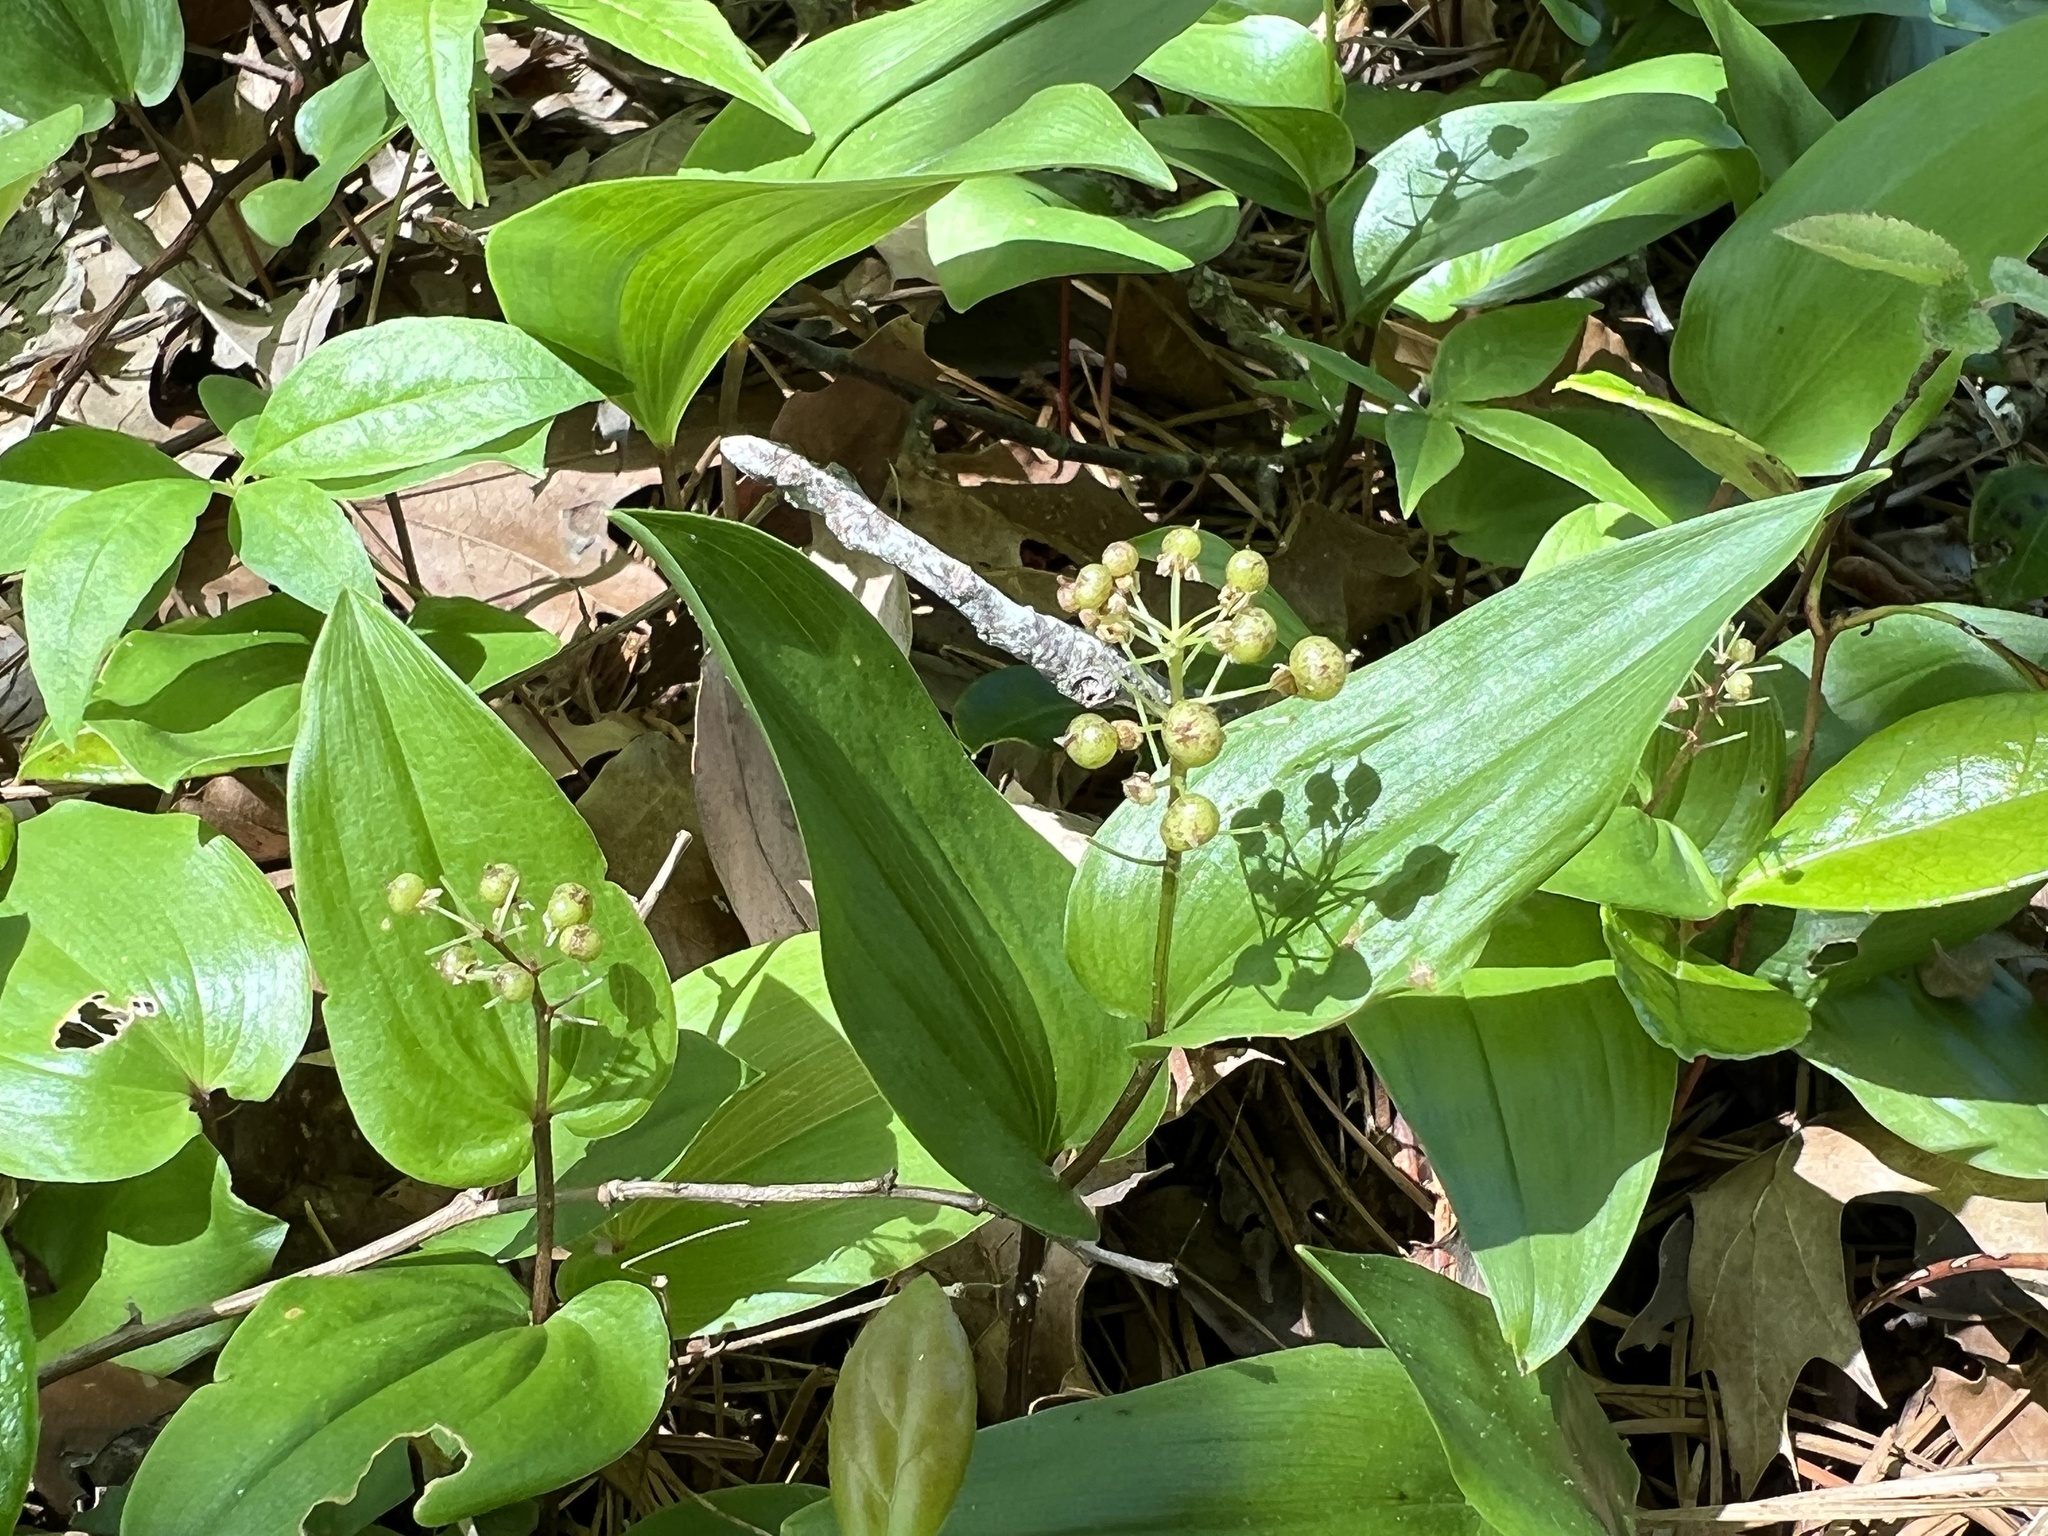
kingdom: Plantae
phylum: Tracheophyta
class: Liliopsida
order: Asparagales
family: Asparagaceae
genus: Maianthemum
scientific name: Maianthemum canadense
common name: False lily-of-the-valley
